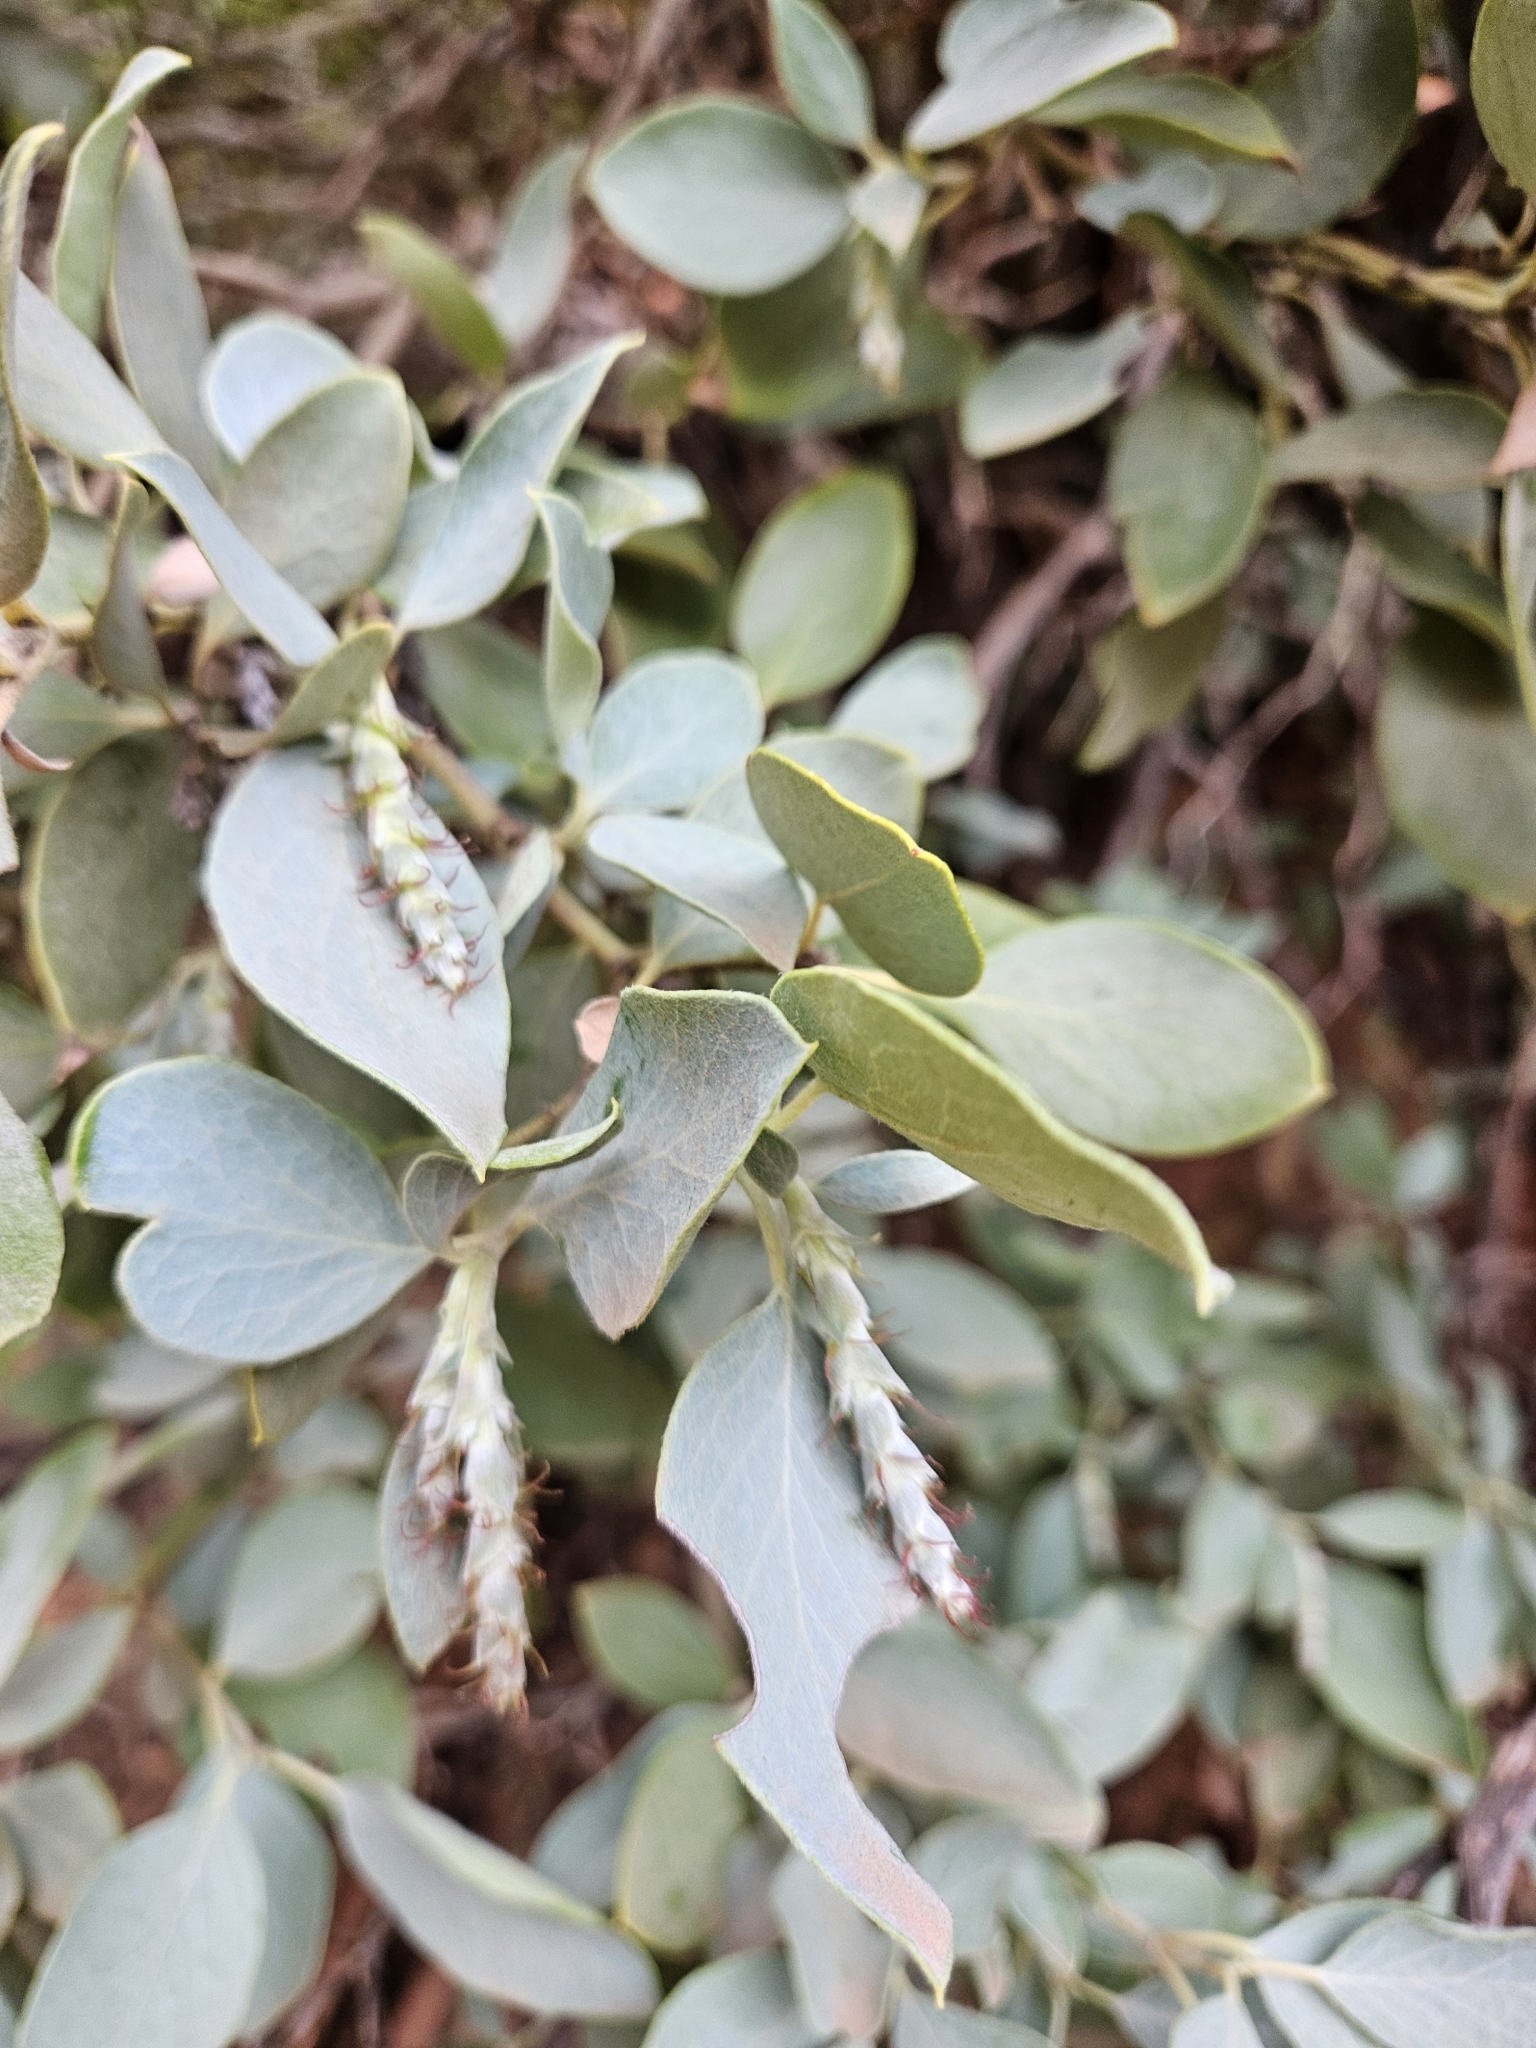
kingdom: Plantae
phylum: Tracheophyta
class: Magnoliopsida
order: Garryales
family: Garryaceae
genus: Garrya
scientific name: Garrya flavescens
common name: Ashy silk-tassel
